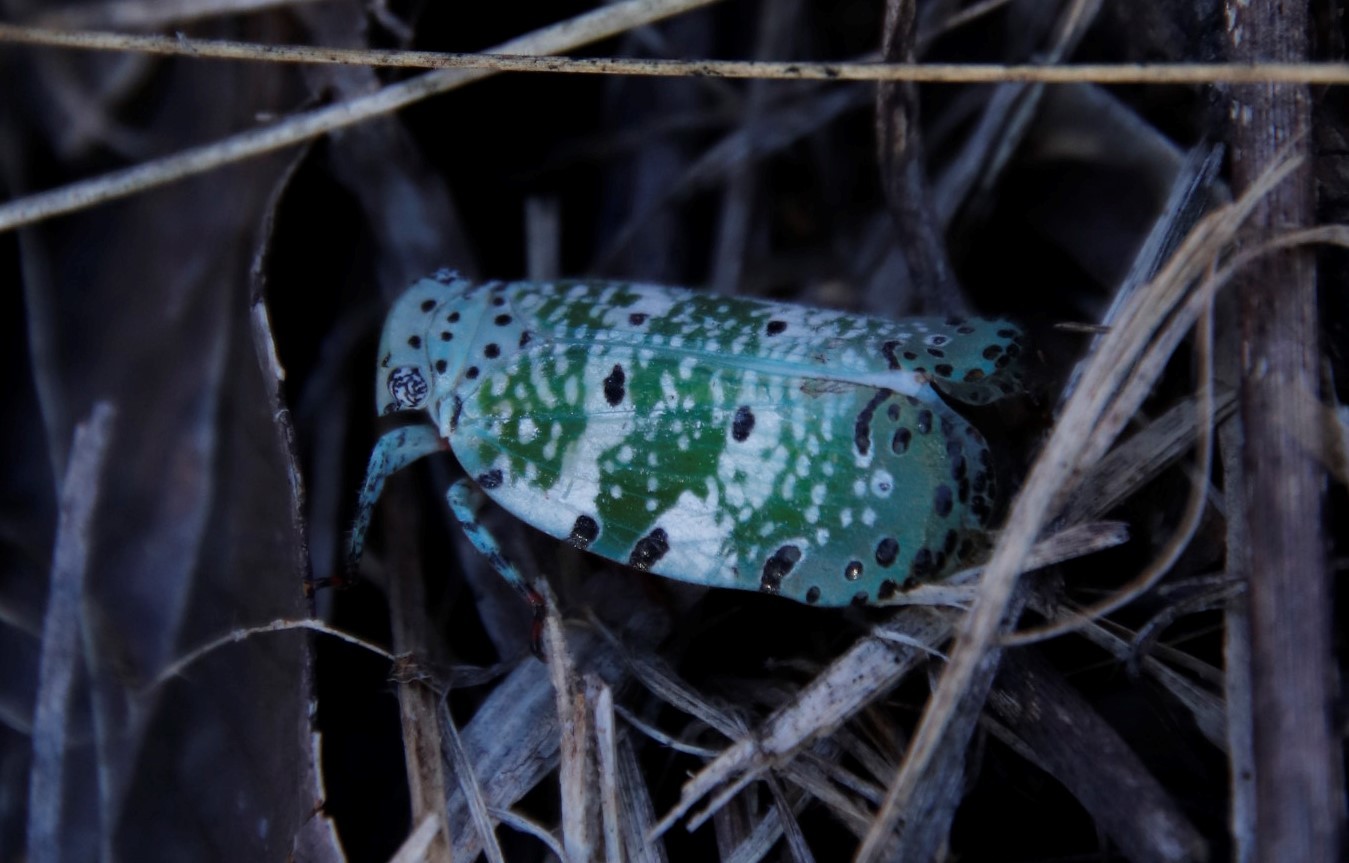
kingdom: Animalia
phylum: Arthropoda
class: Insecta
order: Hemiptera
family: Eurybrachidae
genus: Paropioxys
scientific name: Paropioxys jucundus
